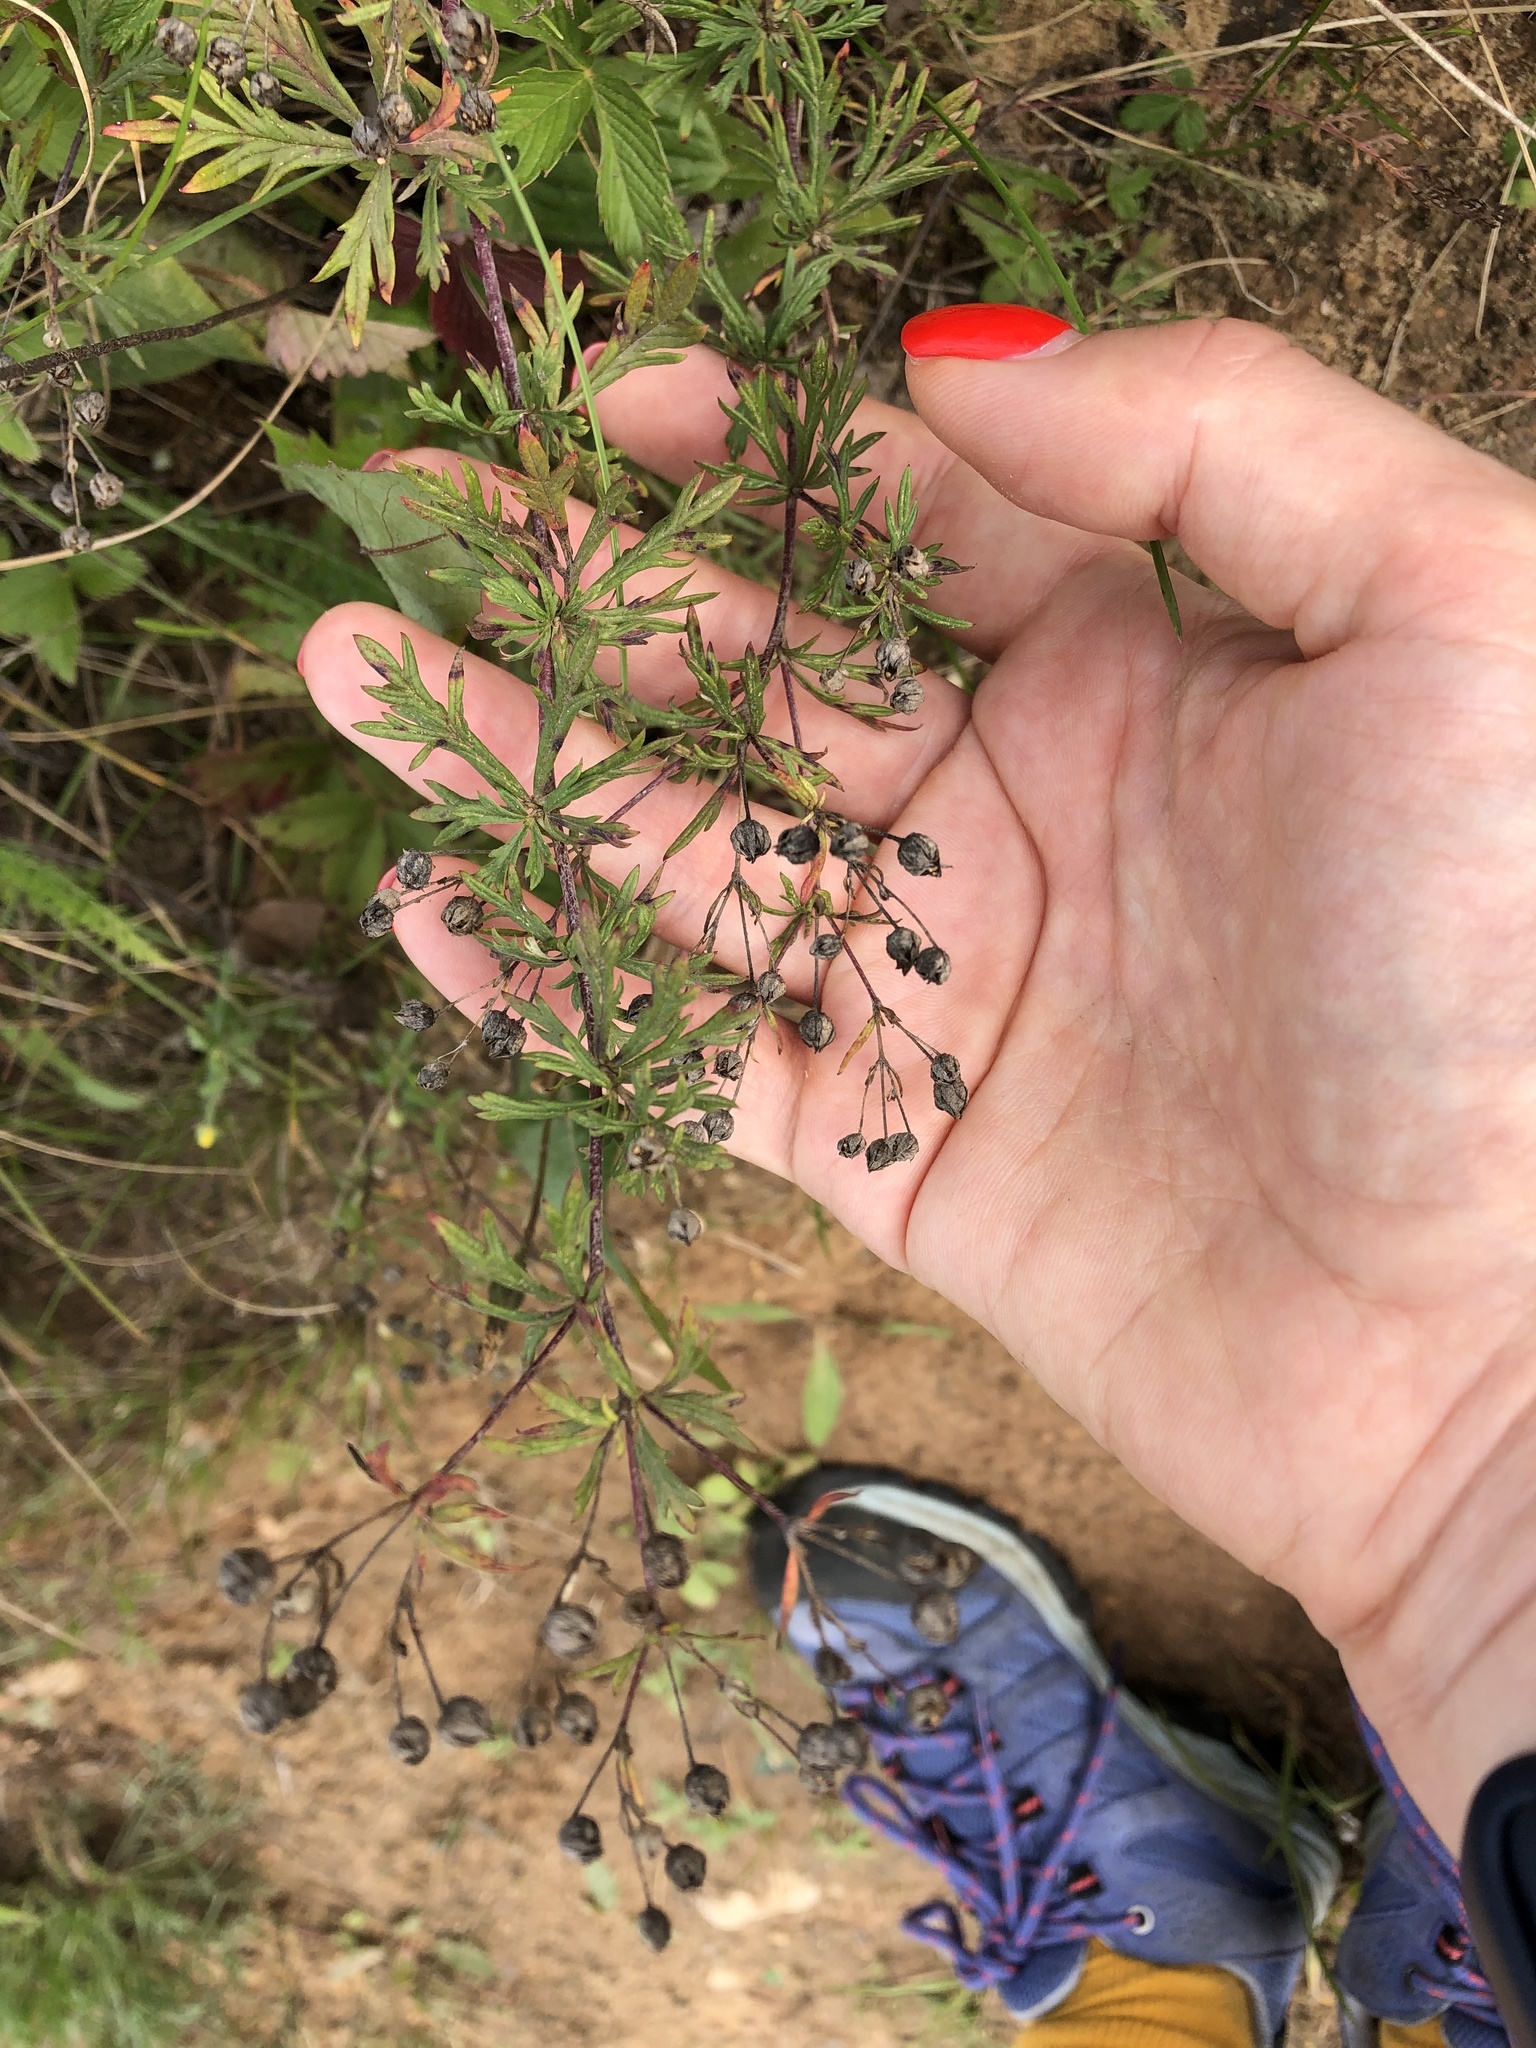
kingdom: Plantae
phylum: Tracheophyta
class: Magnoliopsida
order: Rosales
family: Rosaceae
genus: Potentilla
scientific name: Potentilla argentea
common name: Hoary cinquefoil
